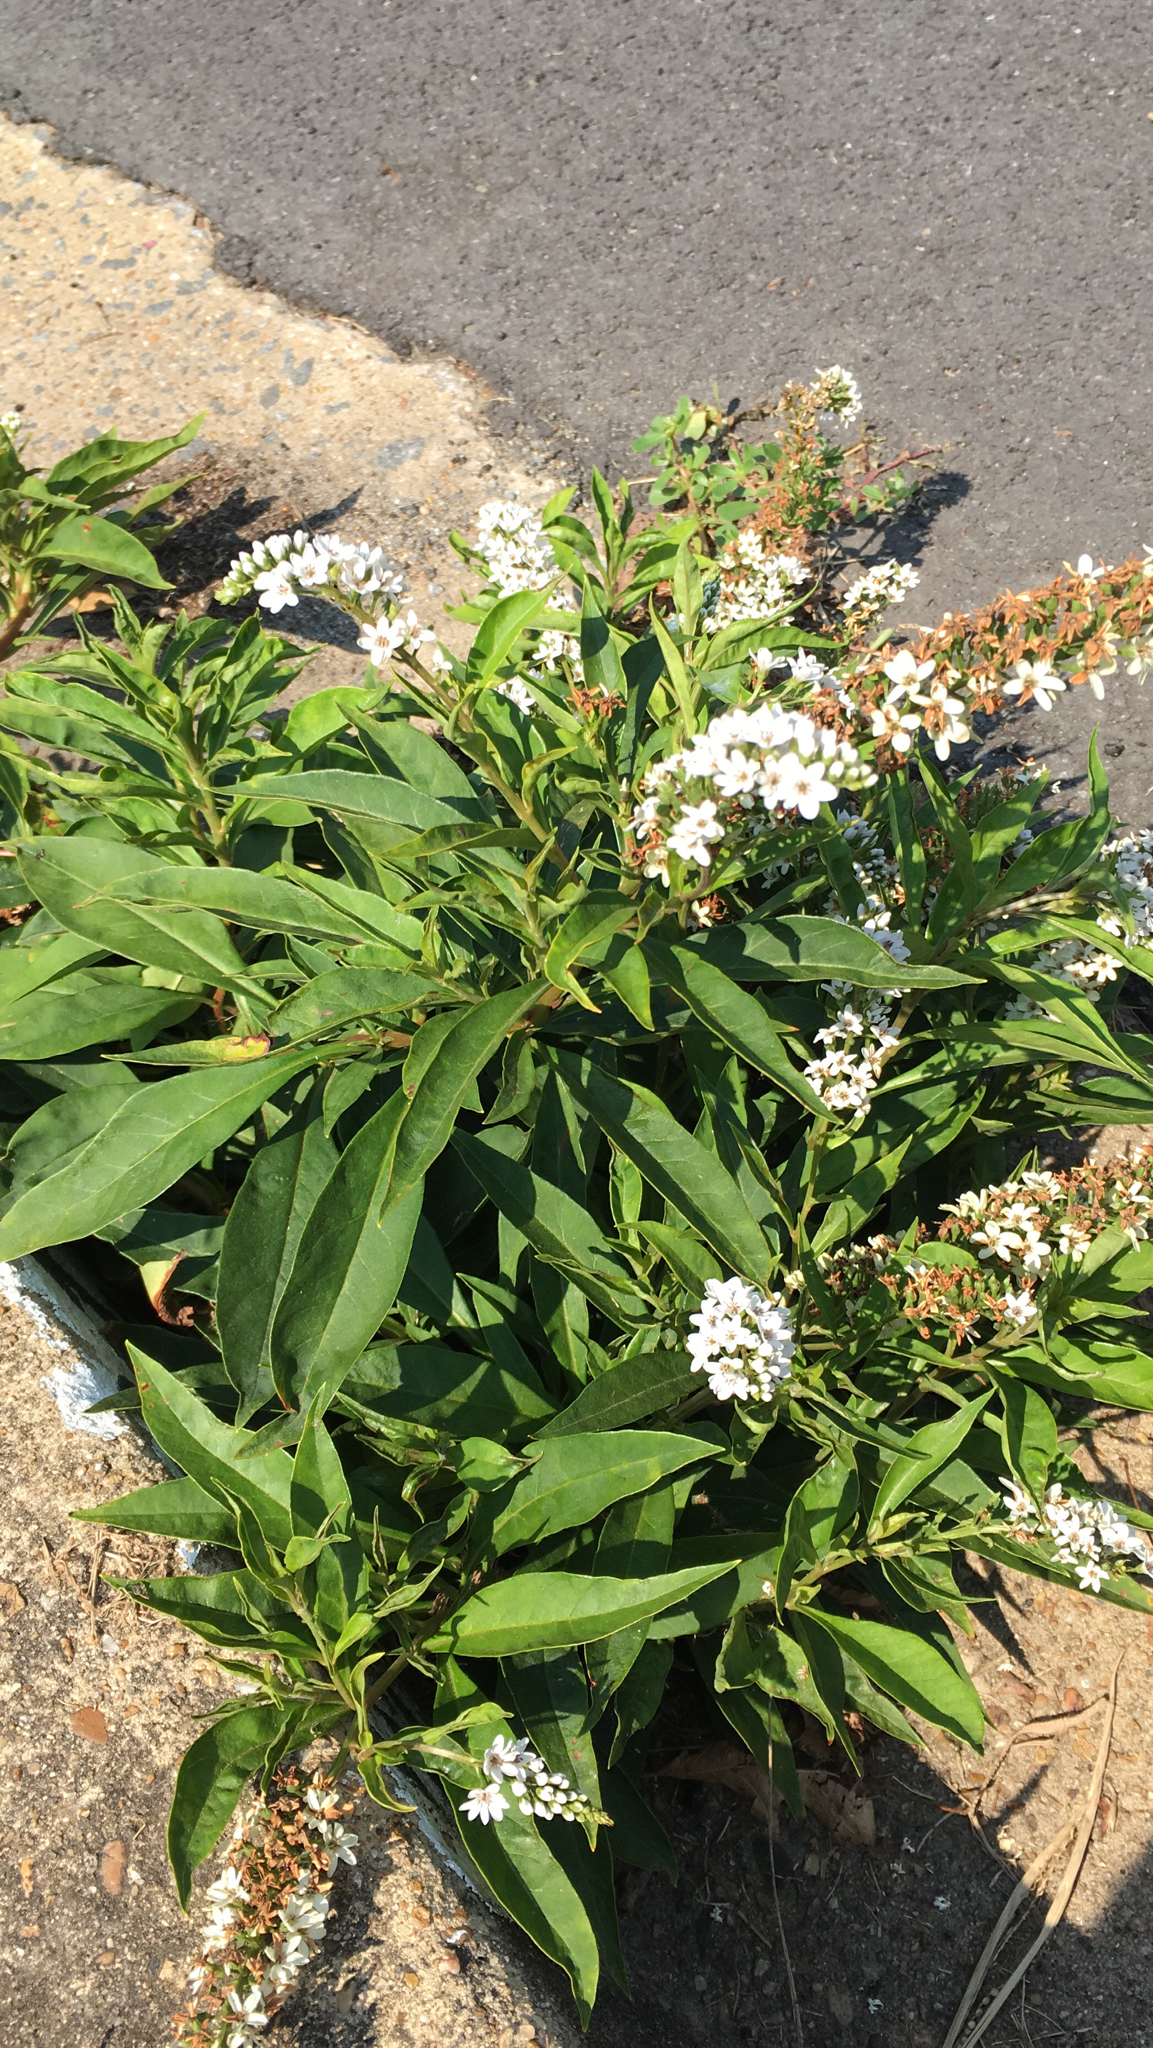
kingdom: Plantae
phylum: Tracheophyta
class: Magnoliopsida
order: Ericales
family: Primulaceae
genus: Lysimachia
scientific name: Lysimachia clethroides
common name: Gooseneck loosestrife
